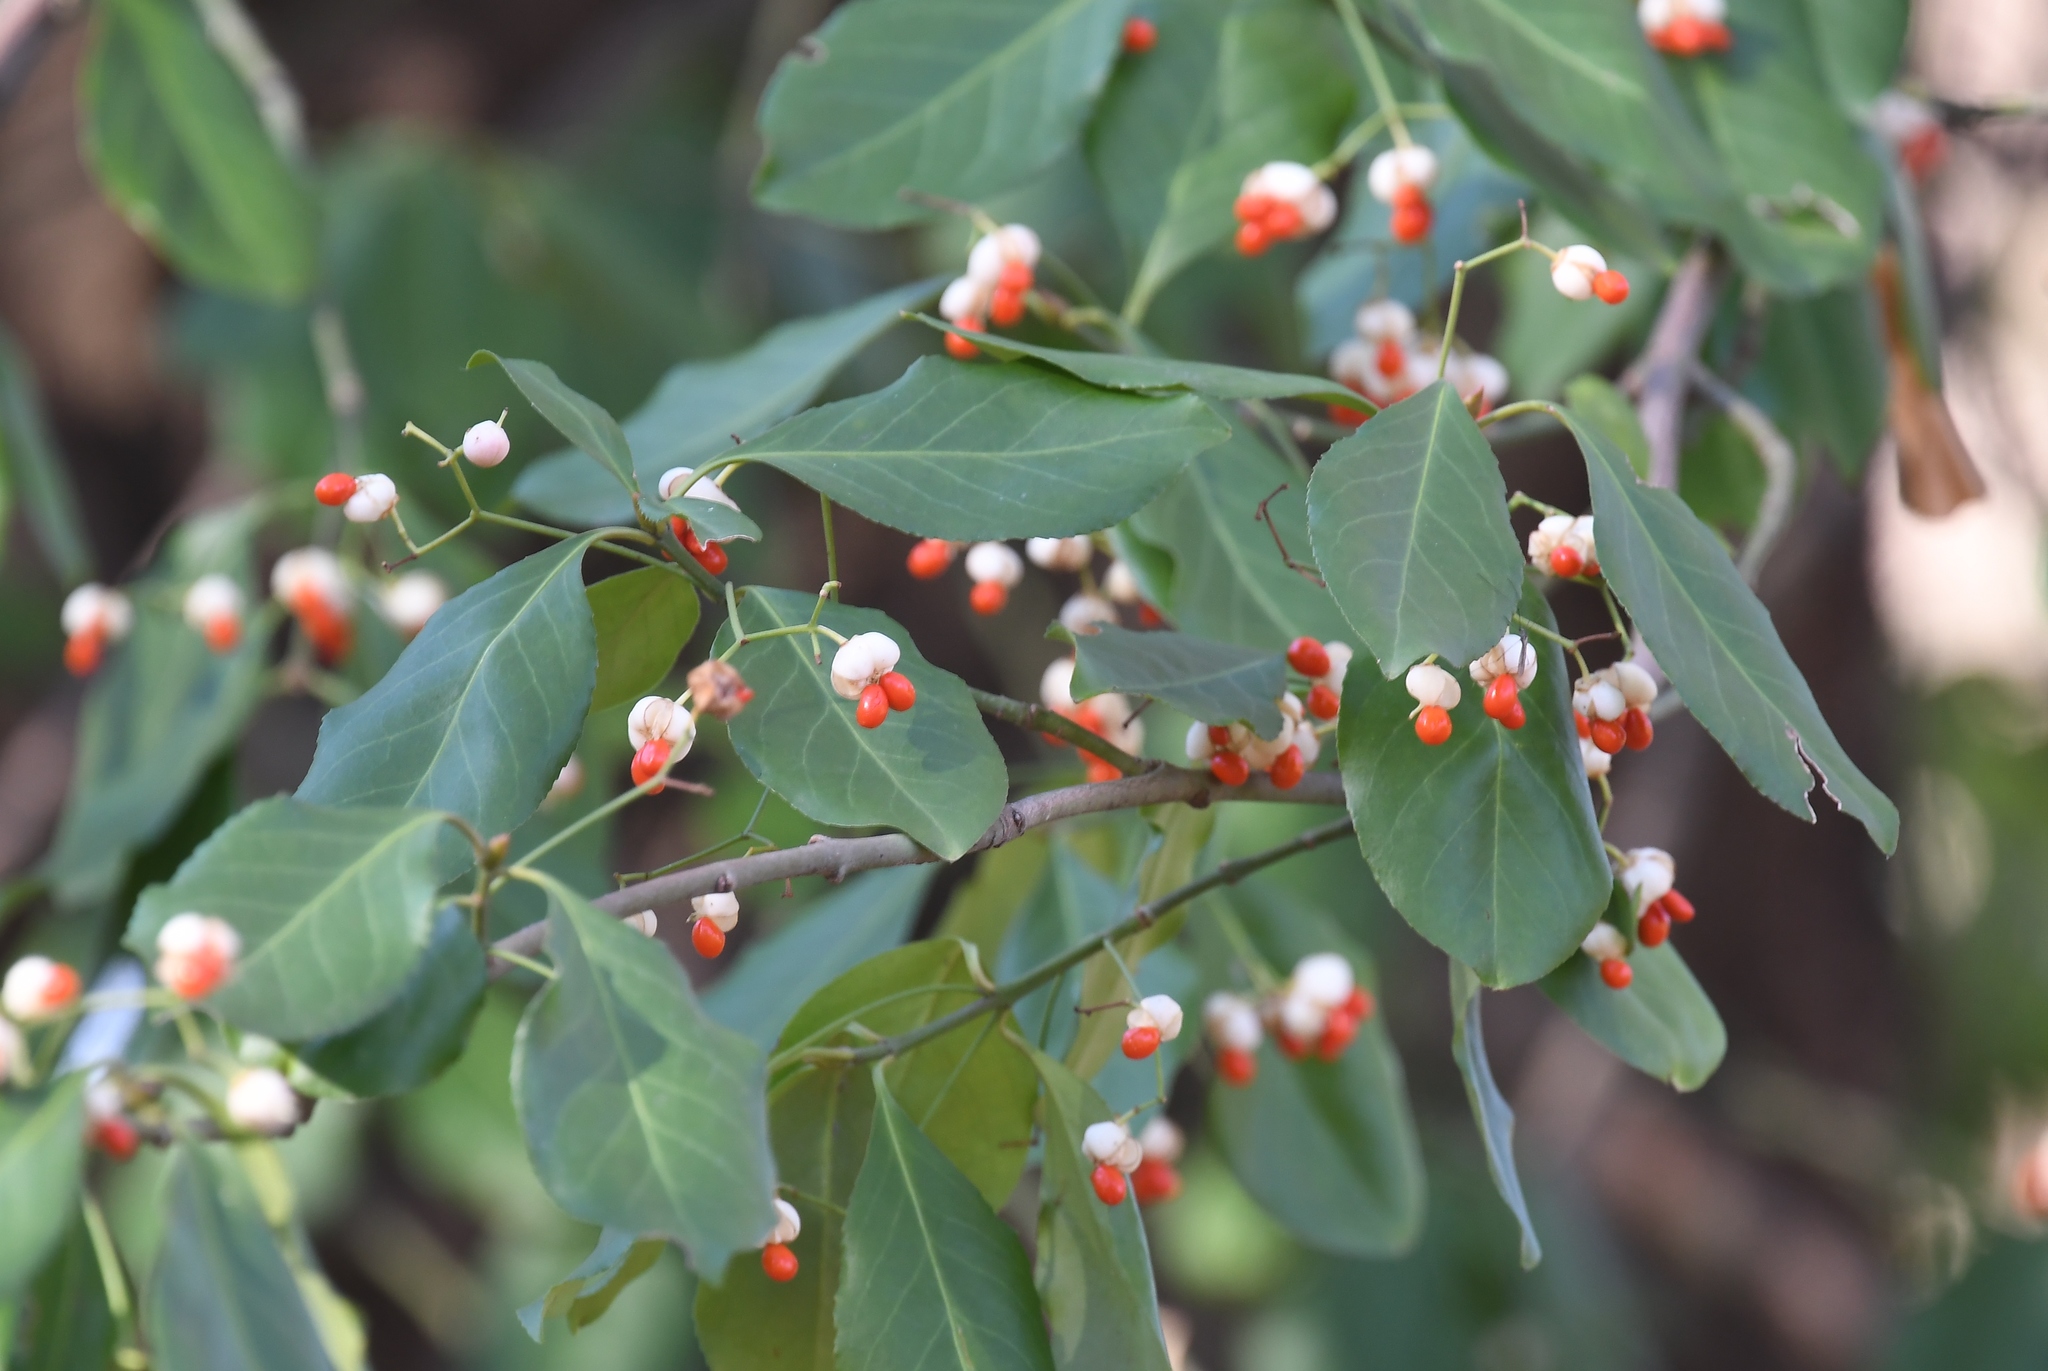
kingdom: Plantae
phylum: Tracheophyta
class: Magnoliopsida
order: Celastrales
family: Celastraceae
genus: Euonymus
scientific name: Euonymus fortunei
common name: Climbing euonymus
